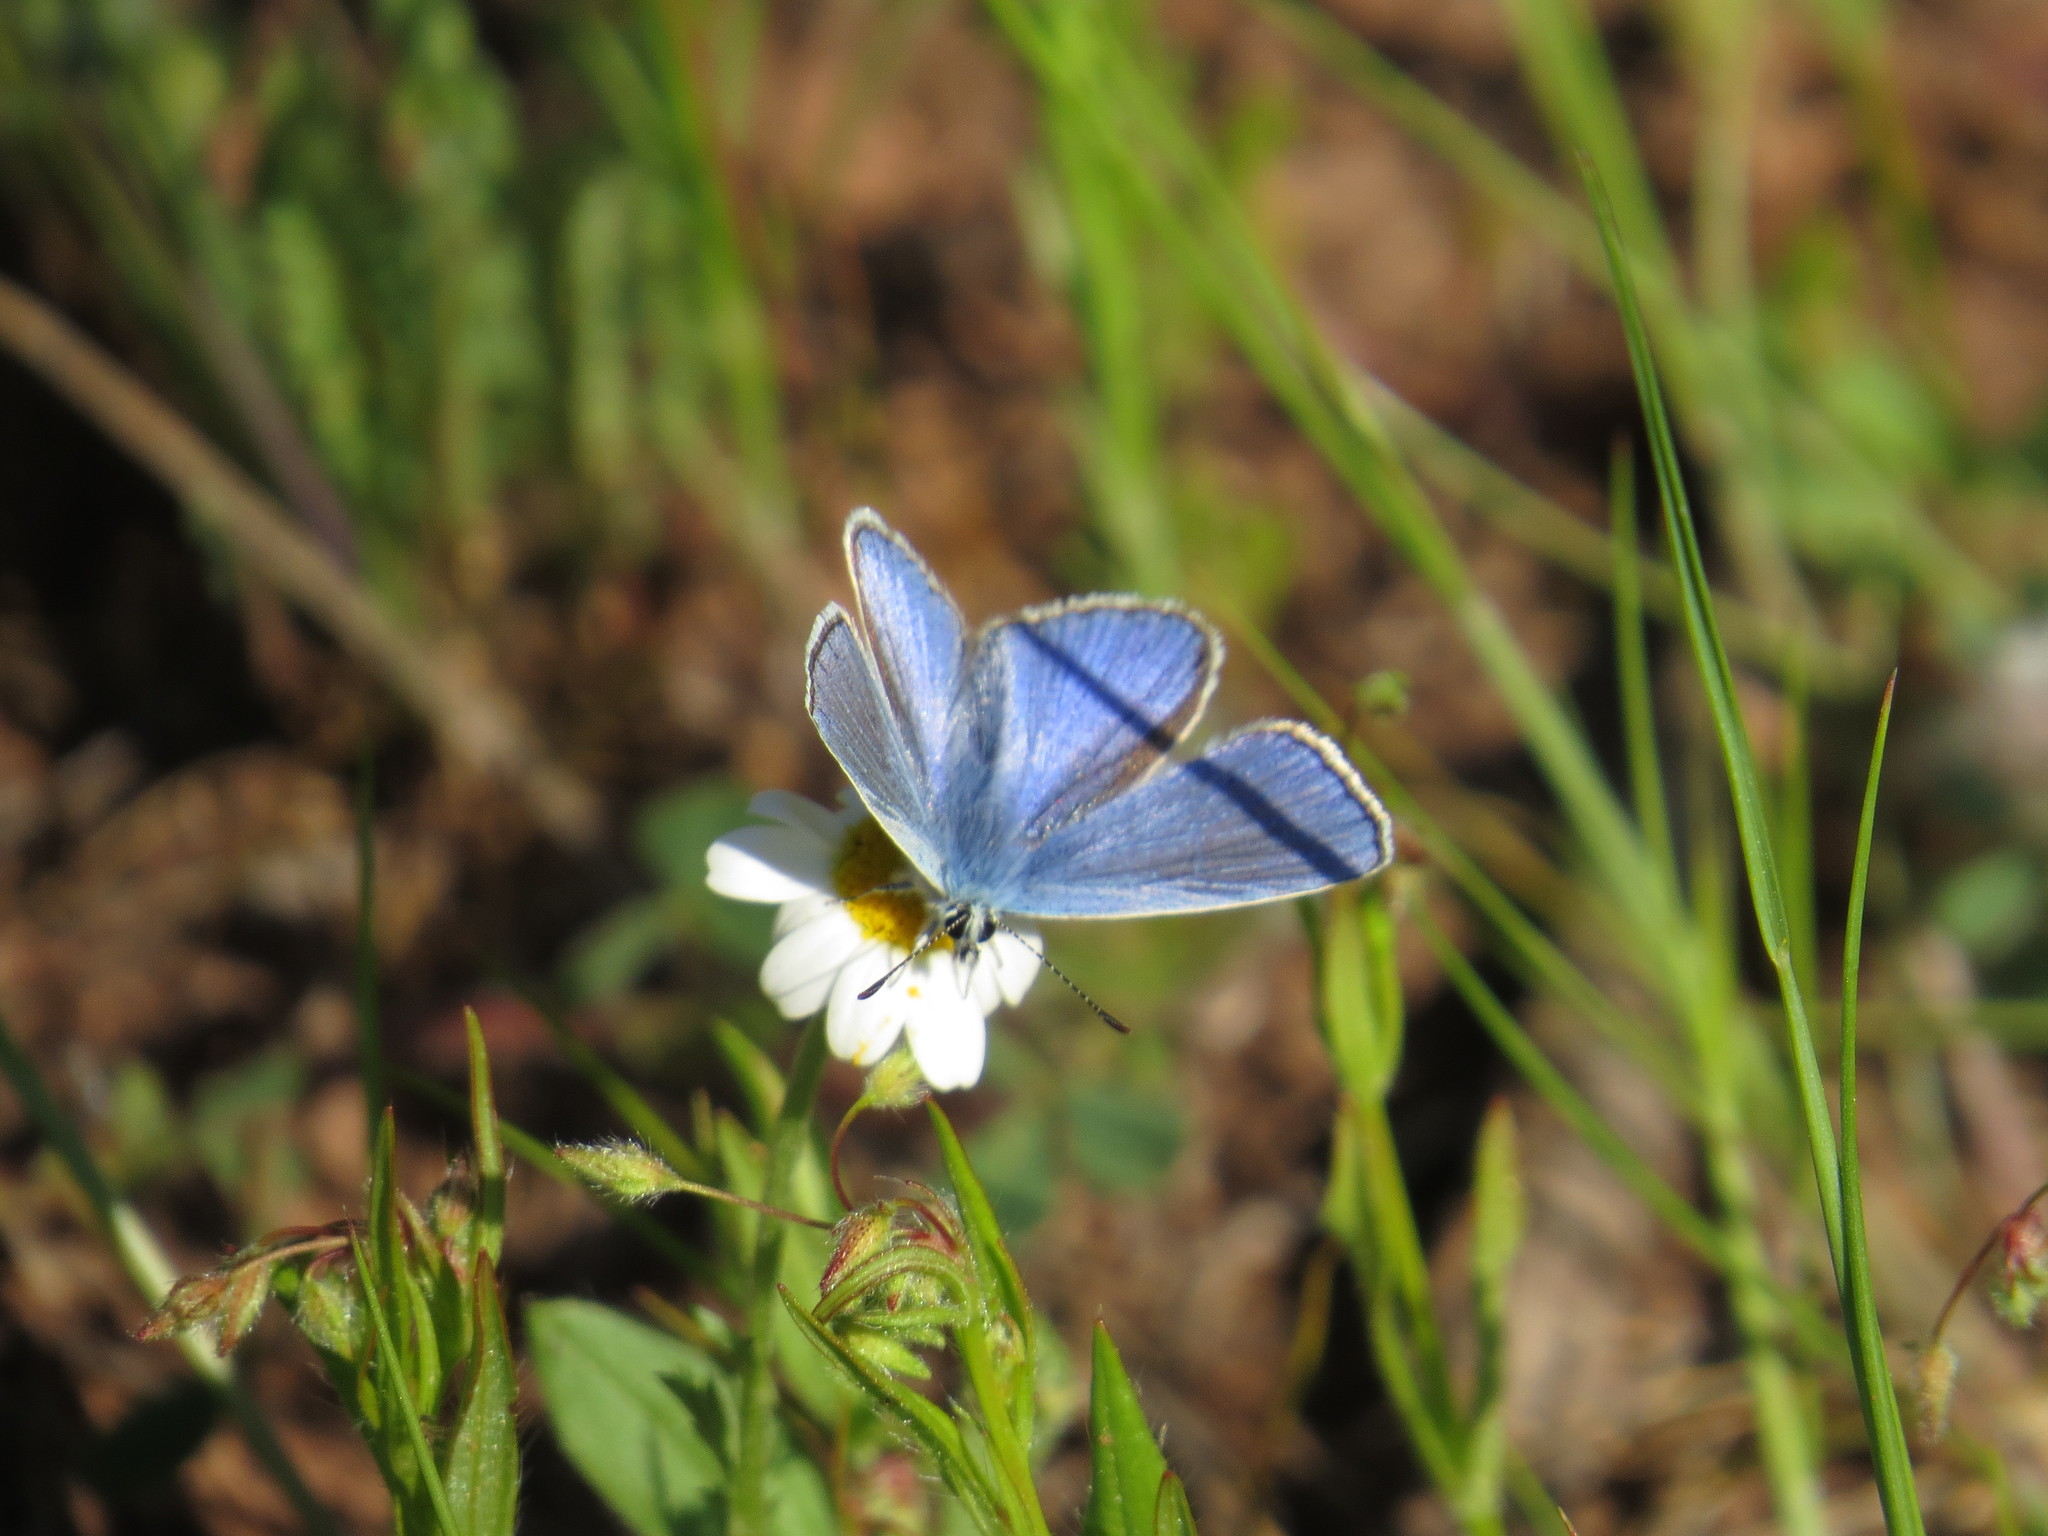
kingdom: Animalia
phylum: Arthropoda
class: Insecta
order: Lepidoptera
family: Lycaenidae
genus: Polyommatus
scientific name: Polyommatus thersites
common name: Chapman's blue
